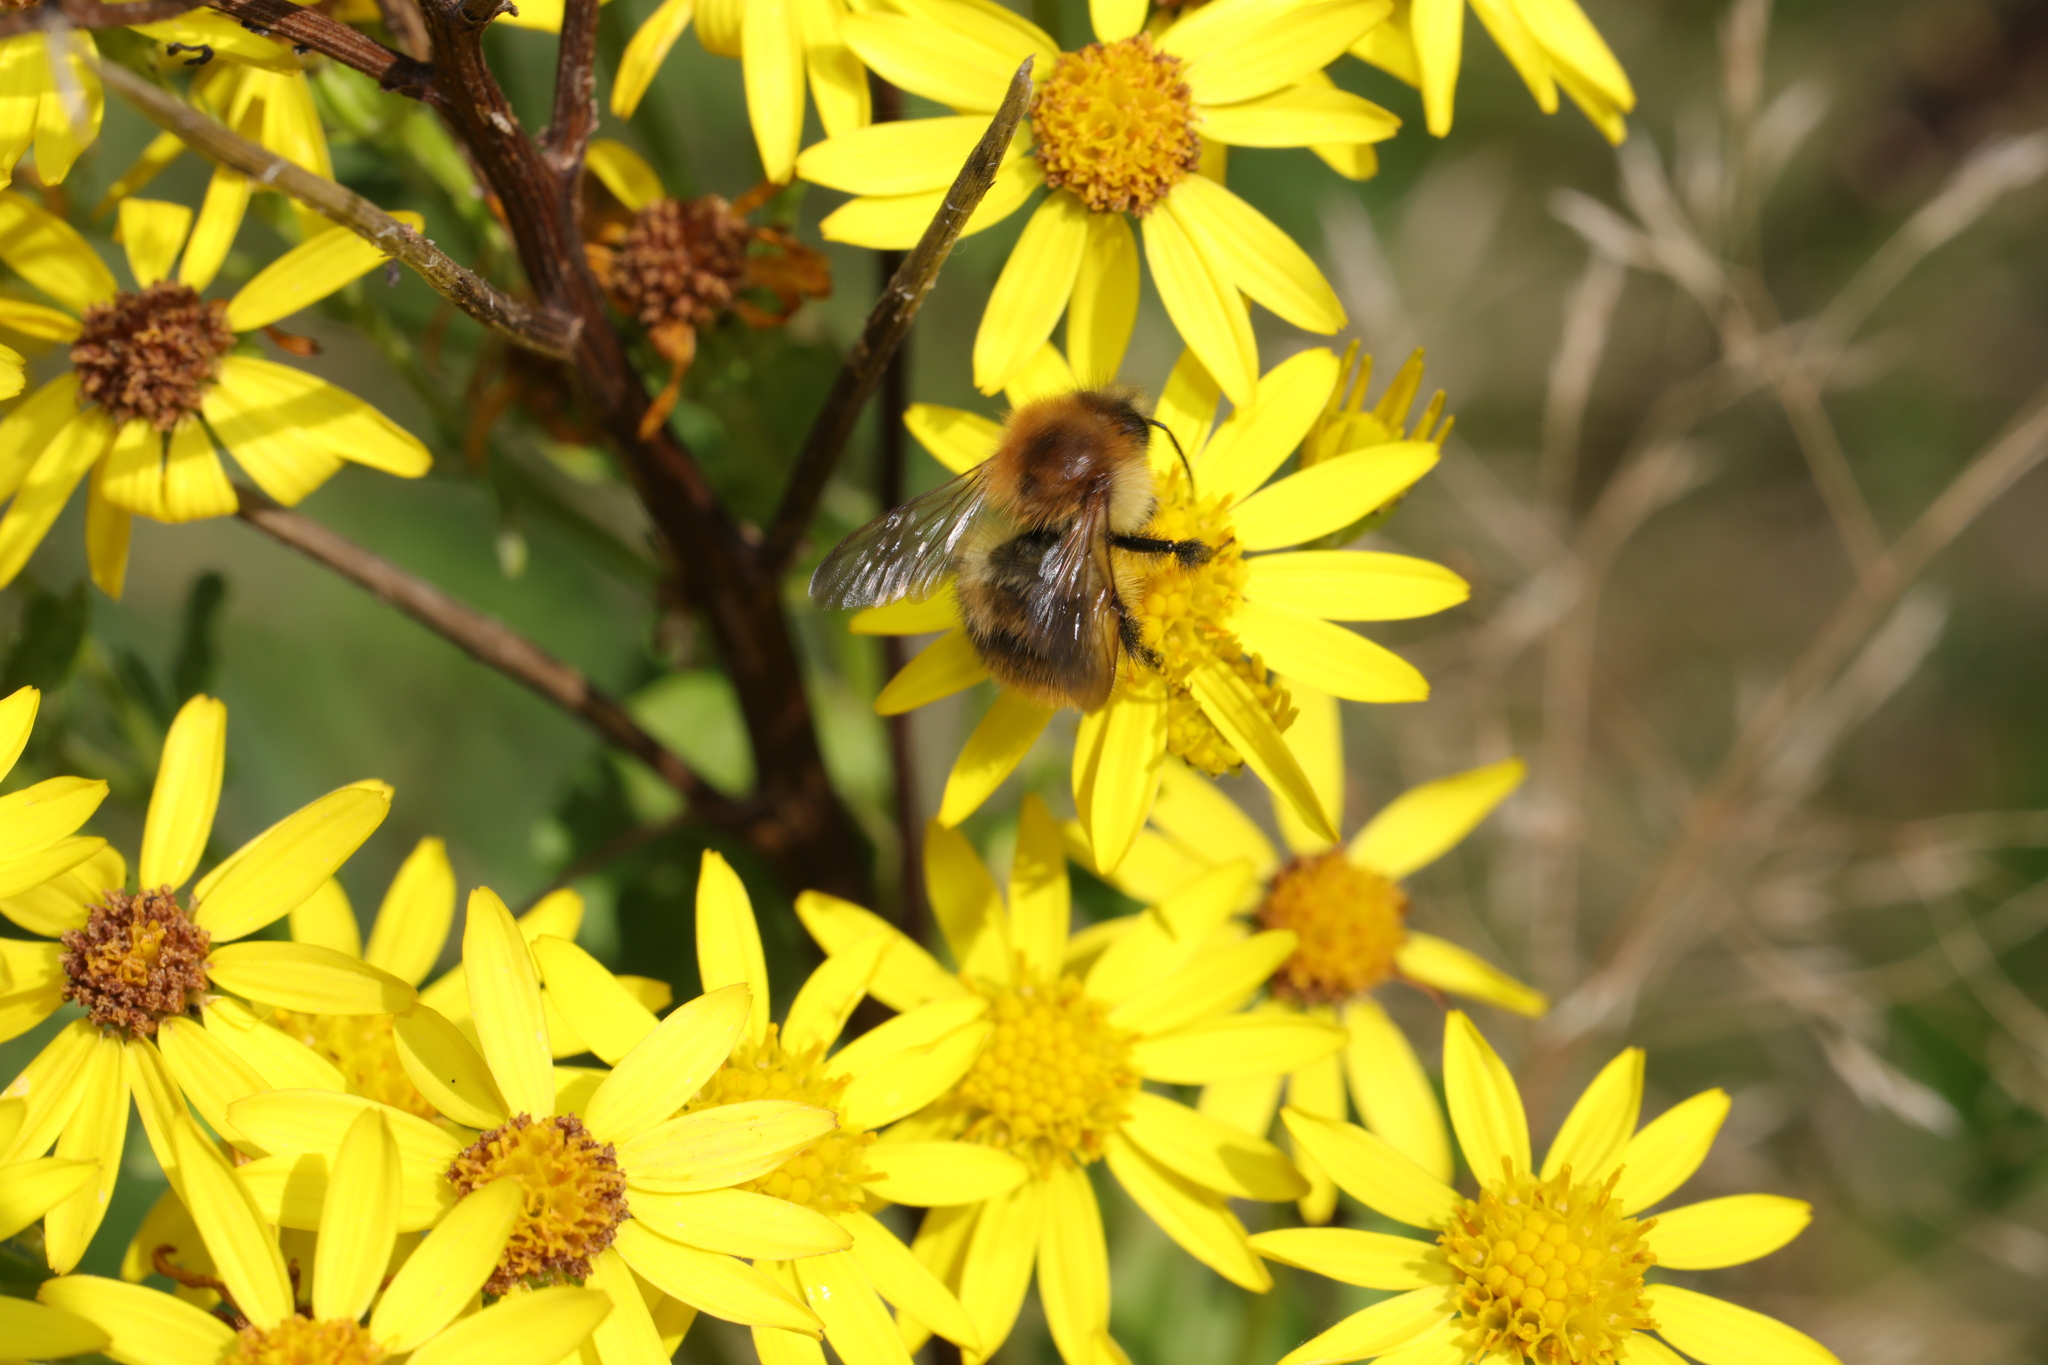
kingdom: Animalia
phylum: Arthropoda
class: Insecta
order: Hymenoptera
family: Apidae
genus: Bombus
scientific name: Bombus pascuorum
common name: Common carder bee
